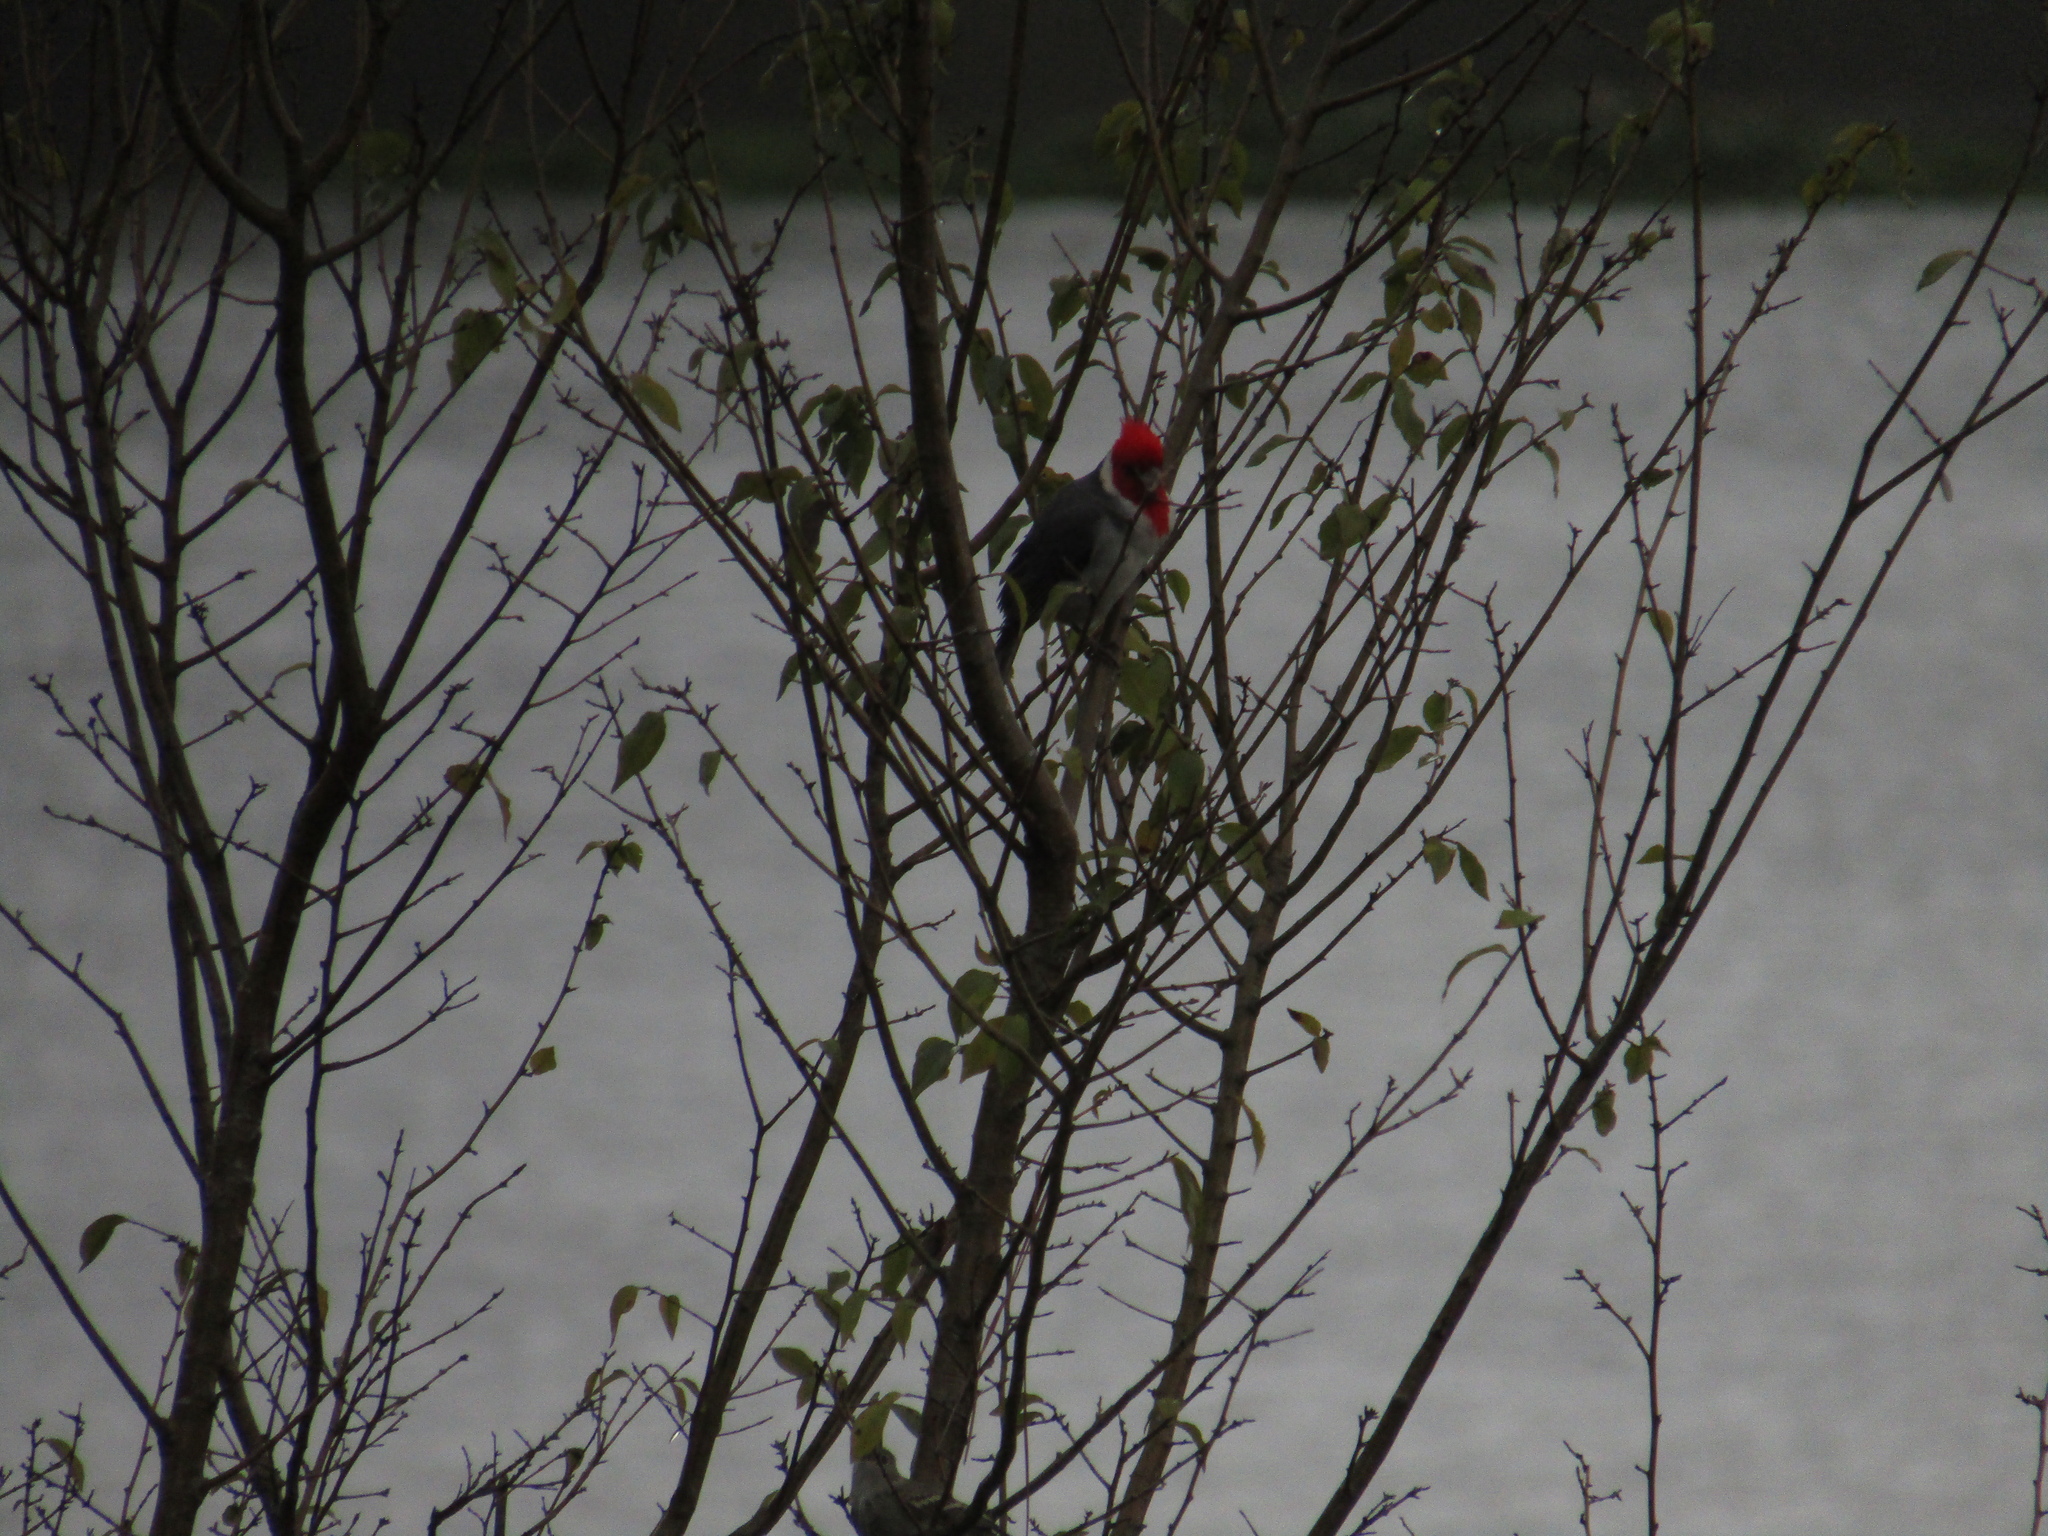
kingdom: Animalia
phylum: Chordata
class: Aves
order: Passeriformes
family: Thraupidae
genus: Paroaria
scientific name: Paroaria coronata
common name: Red-crested cardinal
